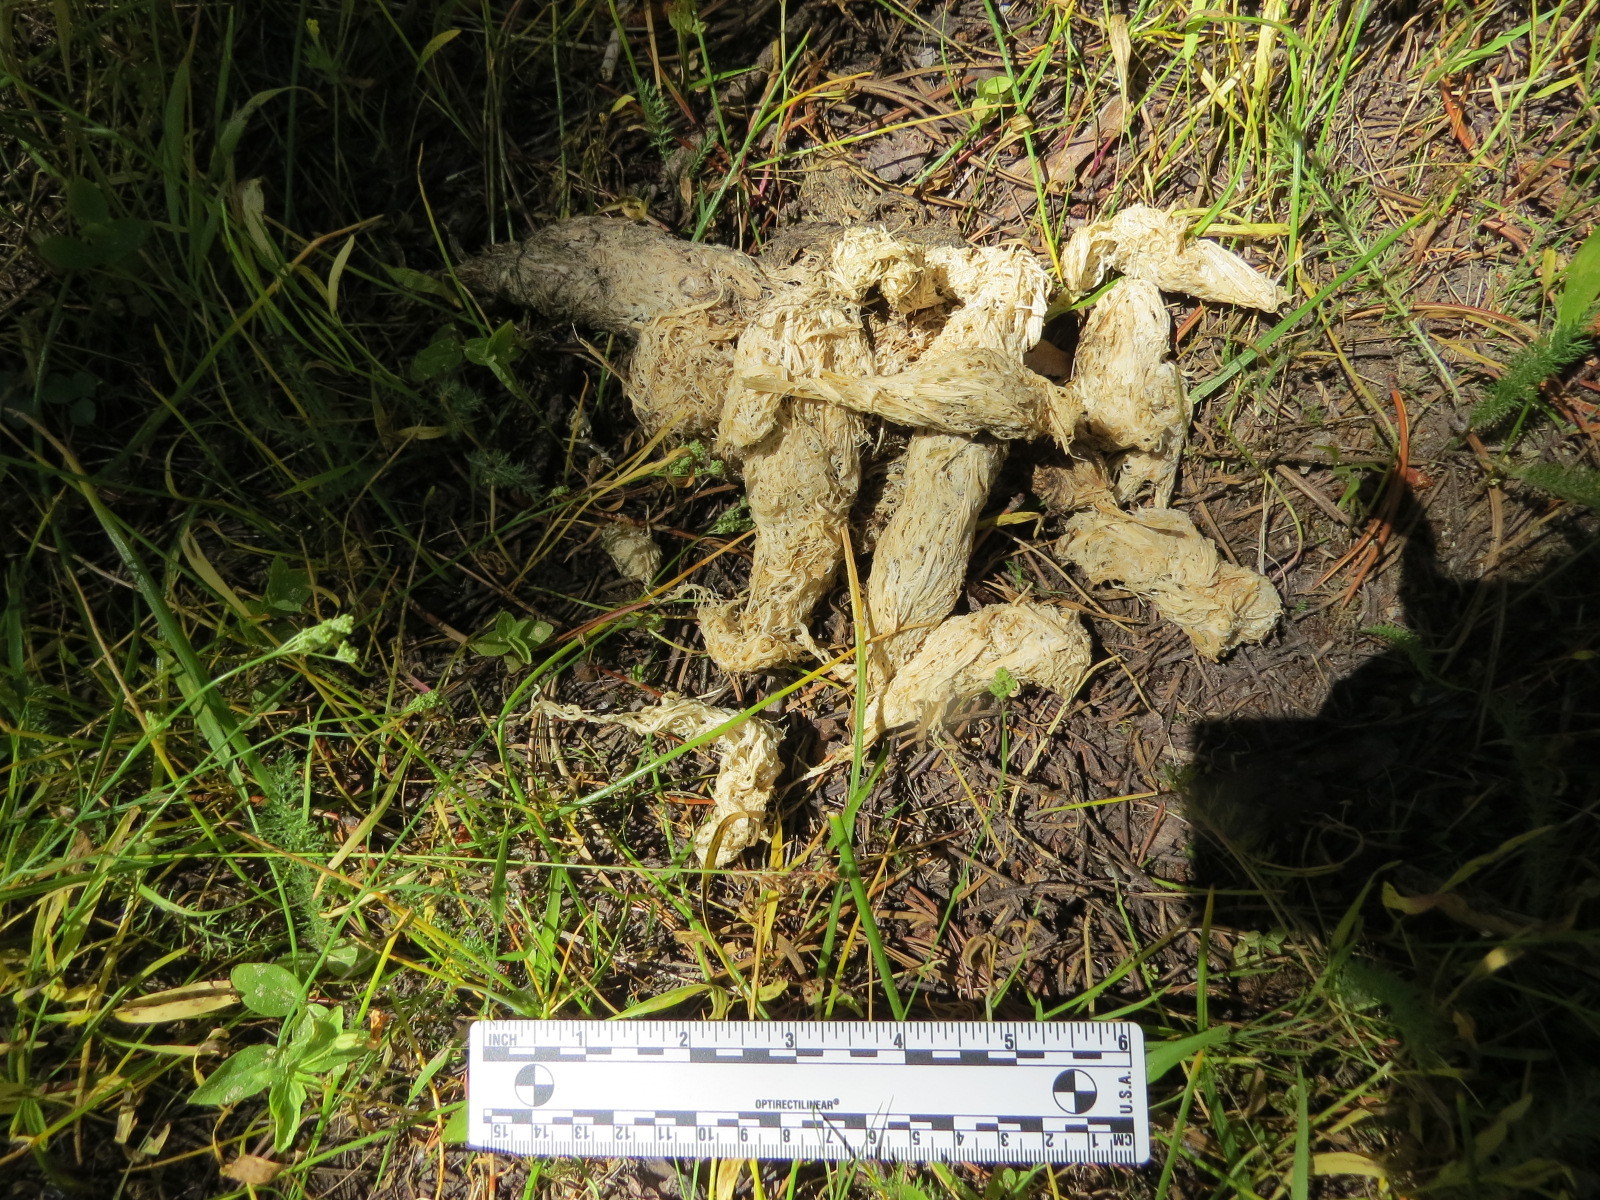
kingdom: Animalia
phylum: Chordata
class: Mammalia
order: Carnivora
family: Ursidae
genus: Ursus
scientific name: Ursus americanus
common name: American black bear
